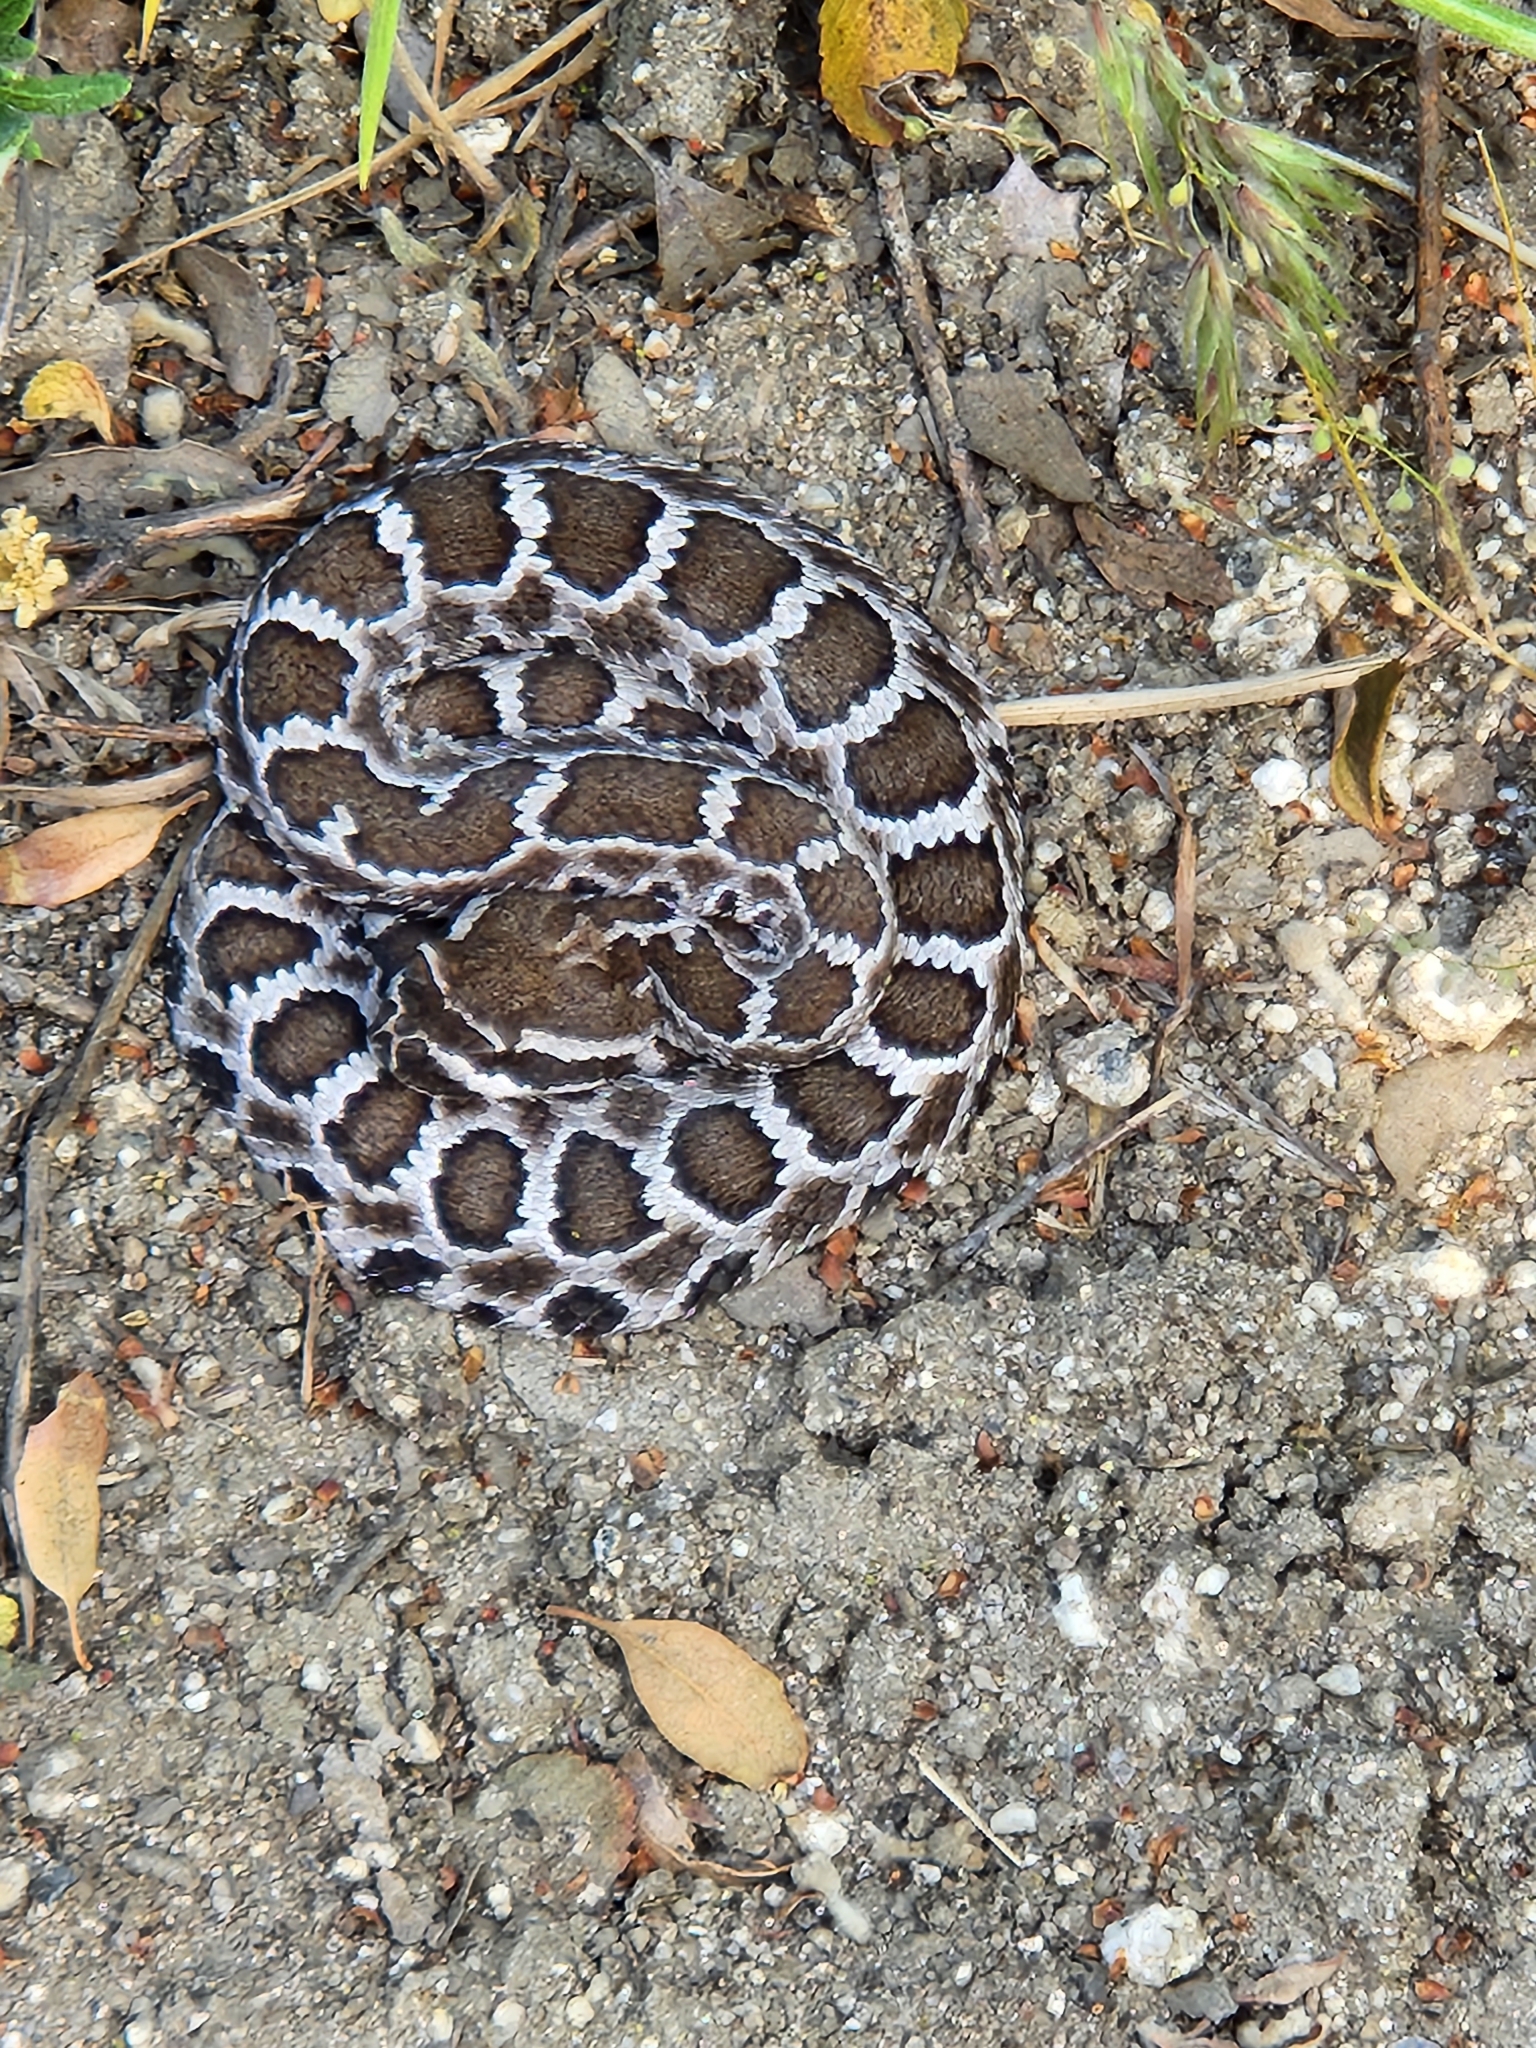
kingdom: Animalia
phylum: Chordata
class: Squamata
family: Viperidae
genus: Crotalus
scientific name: Crotalus oreganus
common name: Abyssus
